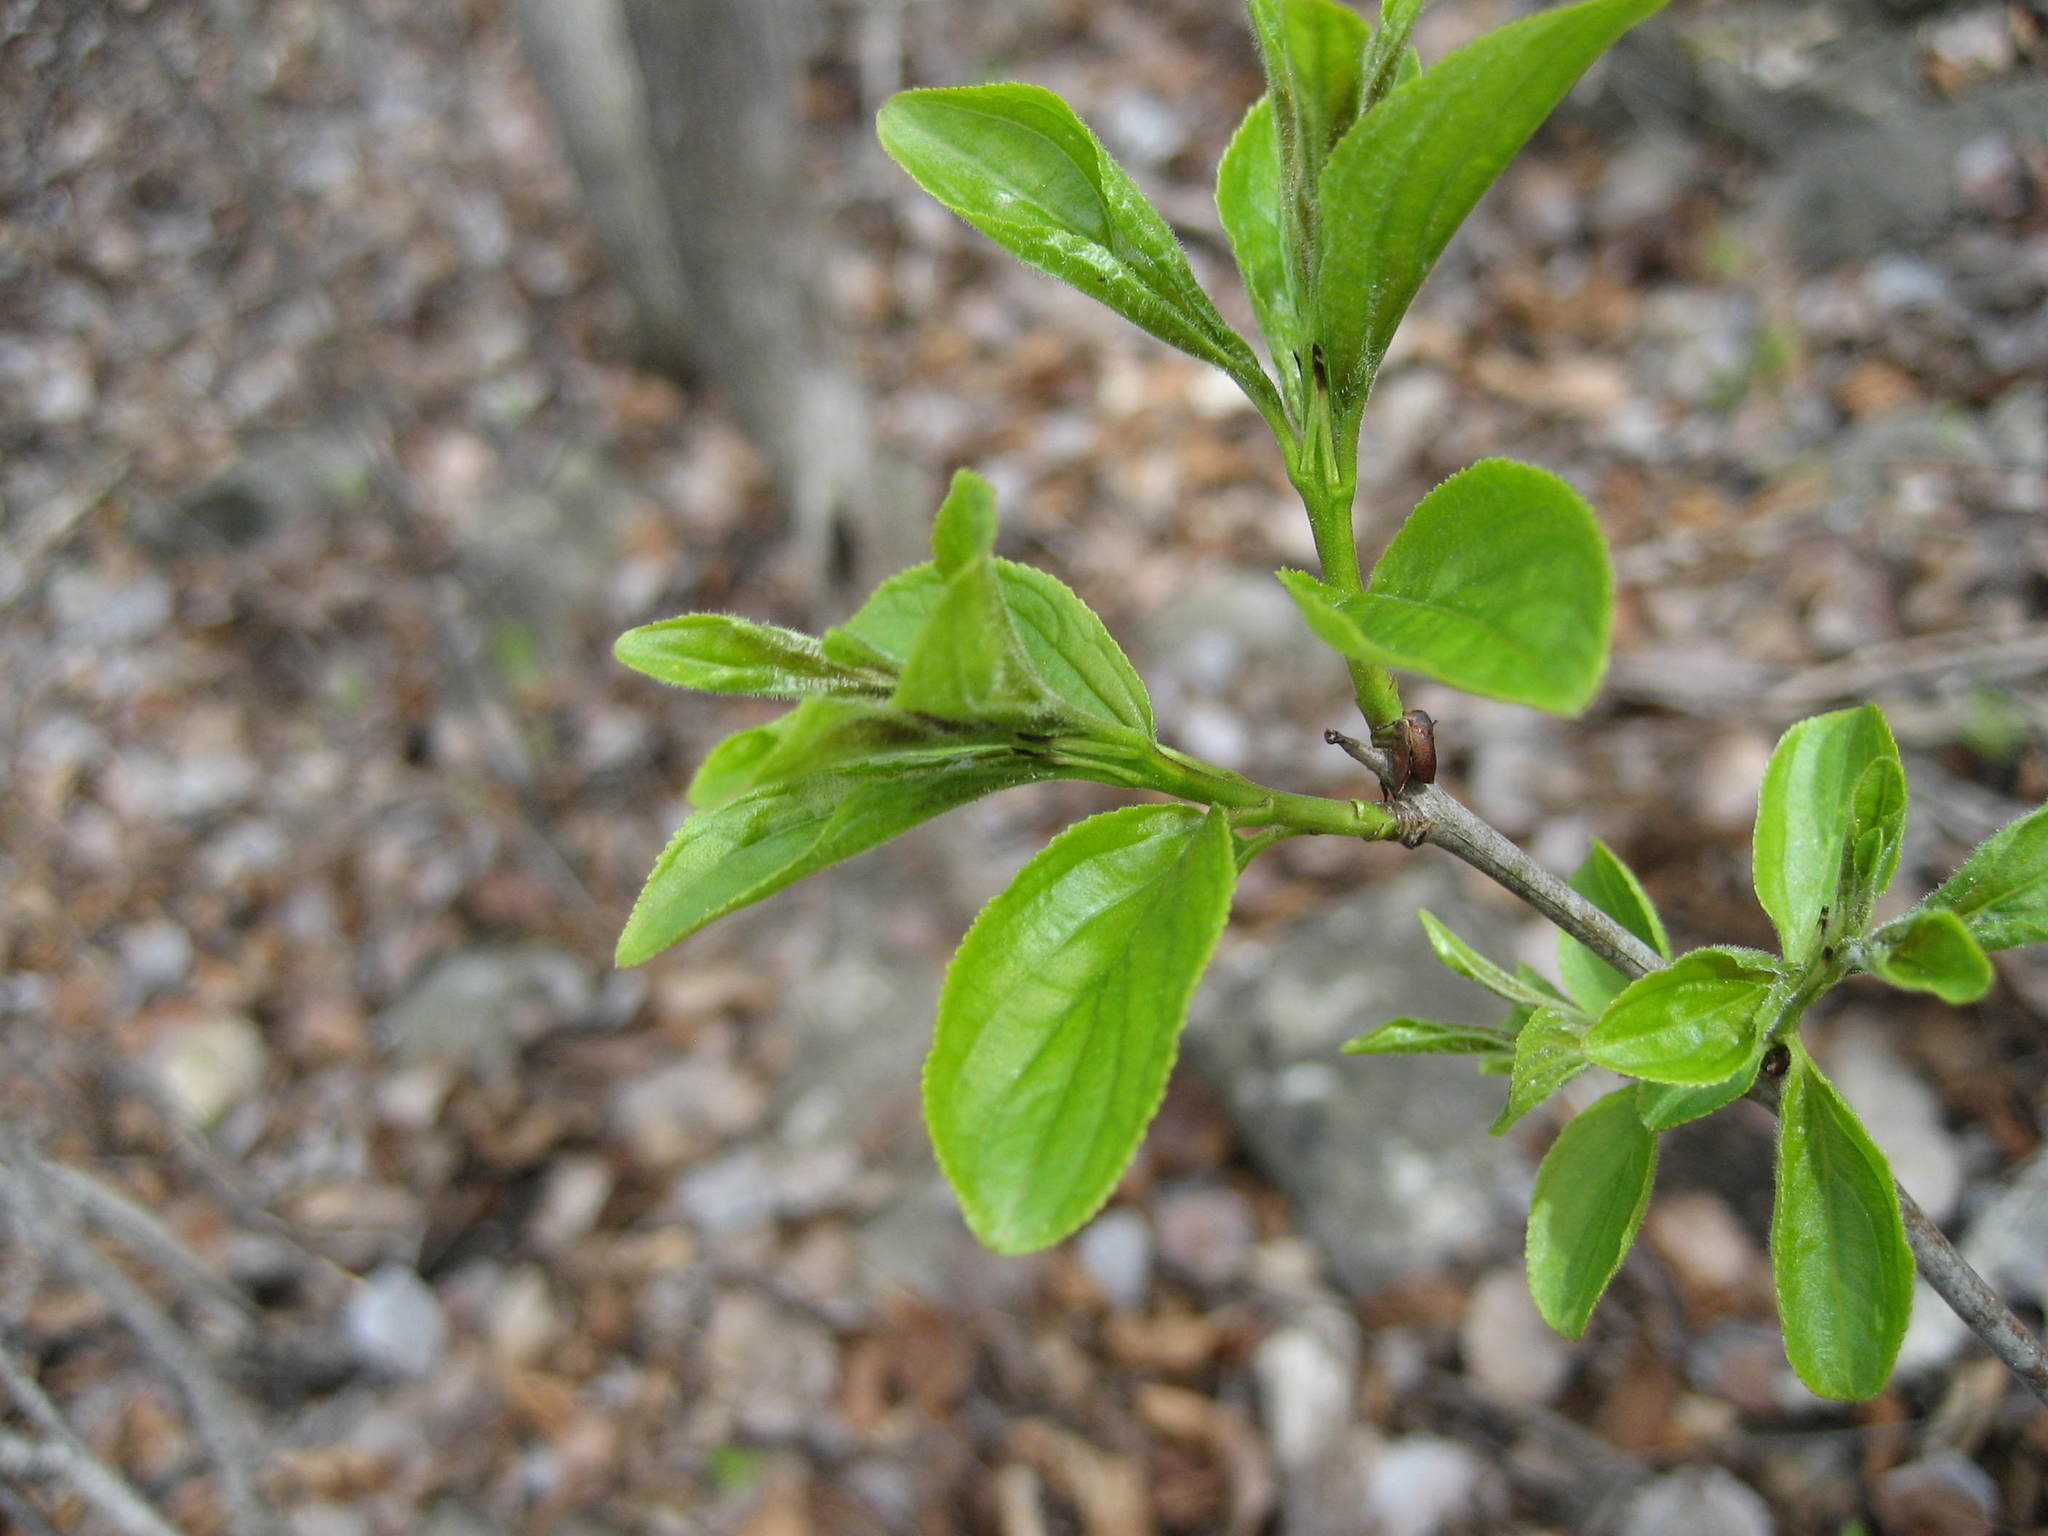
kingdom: Plantae
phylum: Tracheophyta
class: Magnoliopsida
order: Rosales
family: Rhamnaceae
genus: Rhamnus
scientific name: Rhamnus cathartica
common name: Common buckthorn
